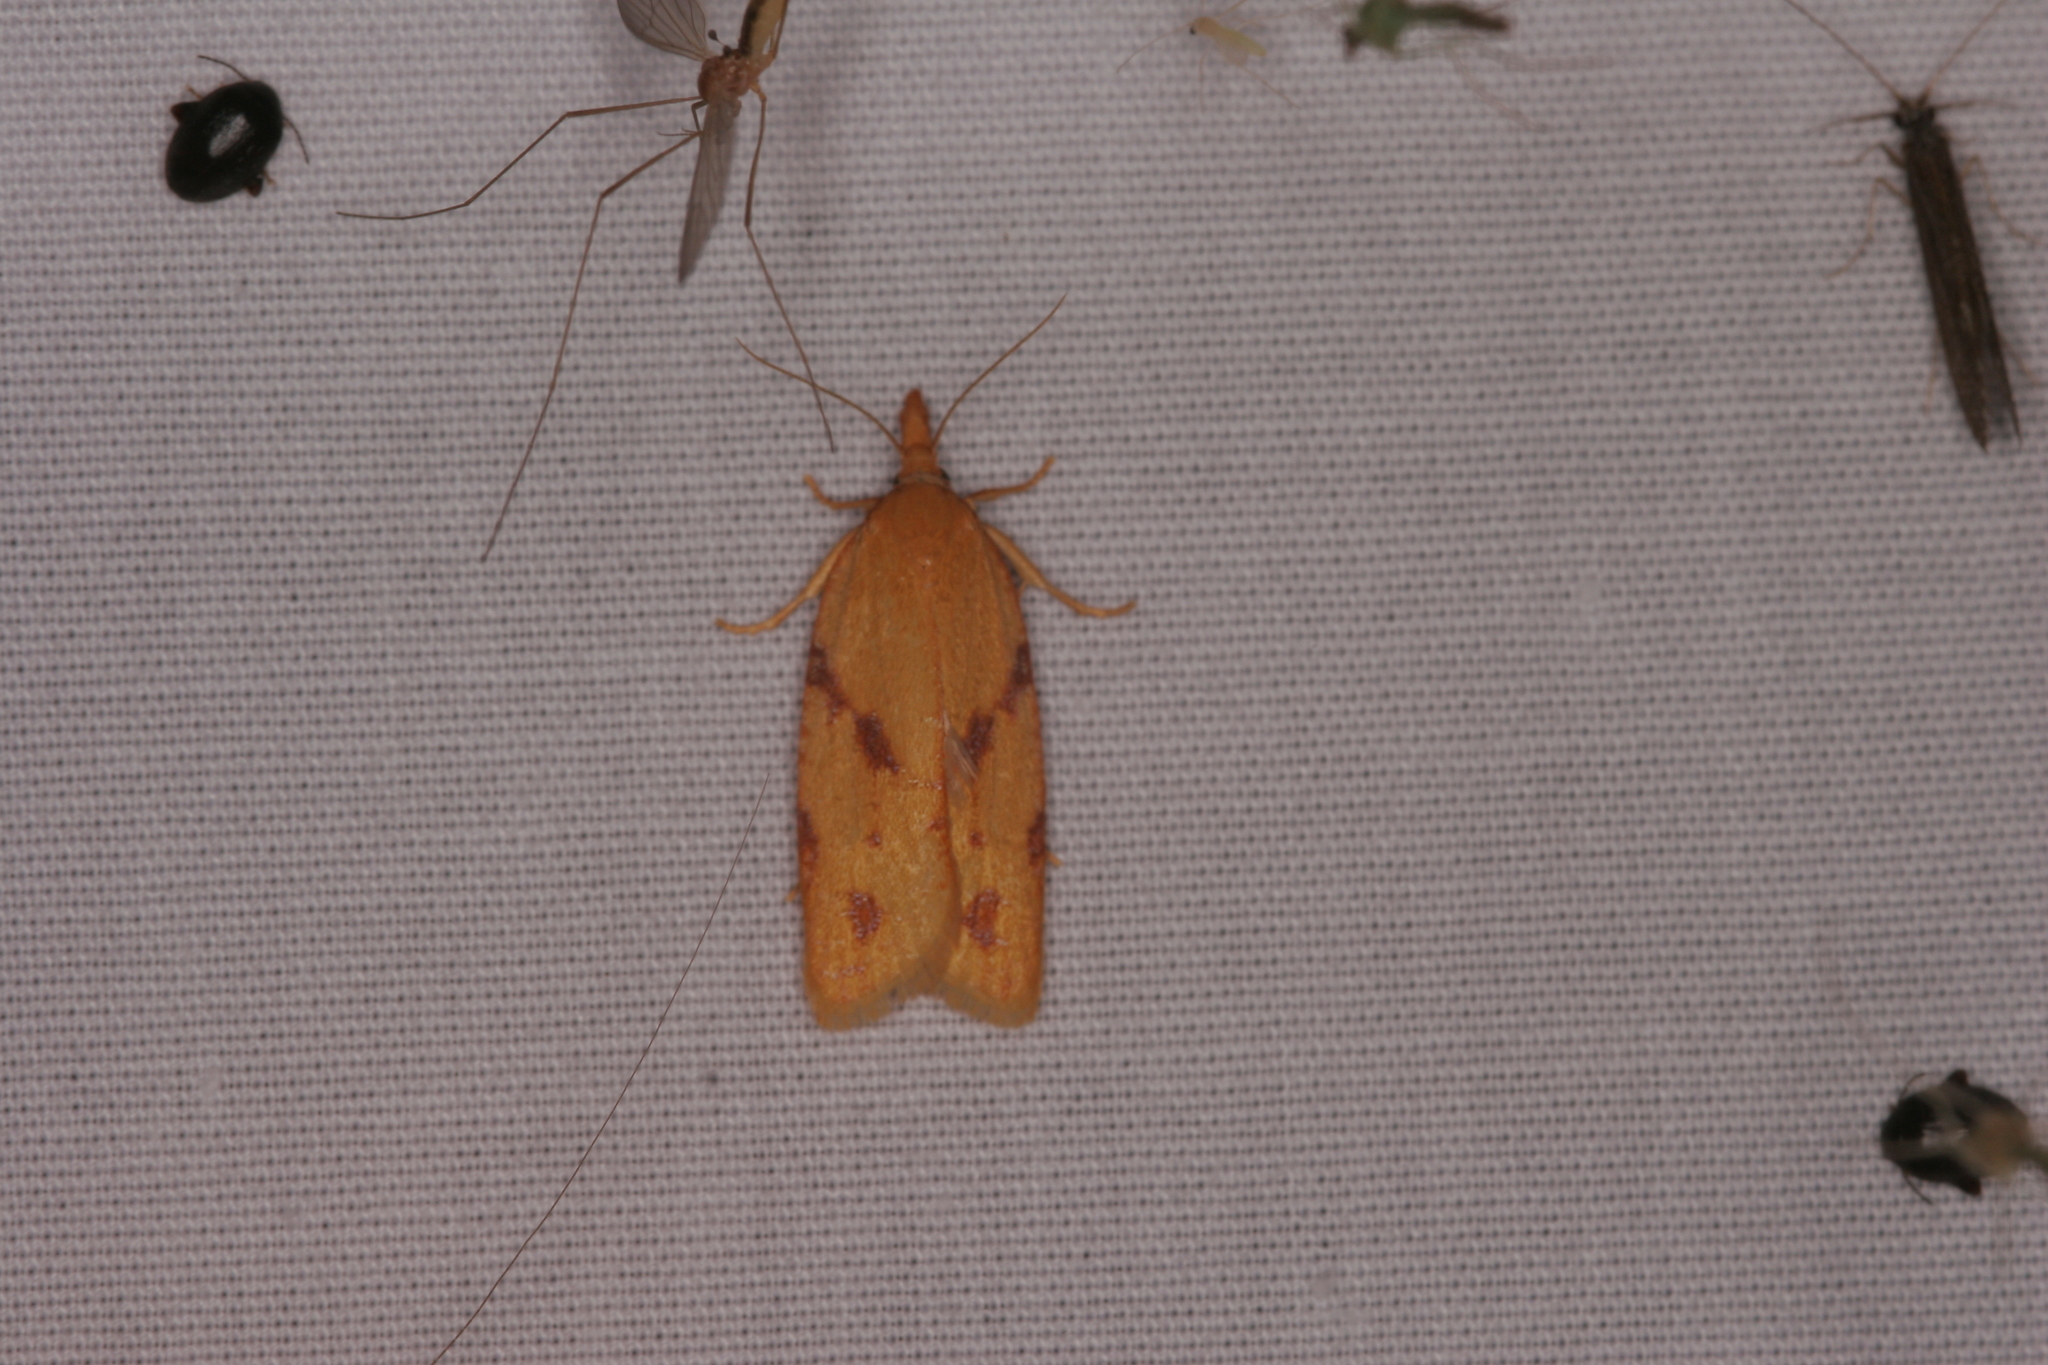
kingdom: Animalia
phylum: Arthropoda
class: Insecta
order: Lepidoptera
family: Tortricidae
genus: Sparganothis
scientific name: Sparganothis unifasciana
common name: One-lined sparganothis moth
